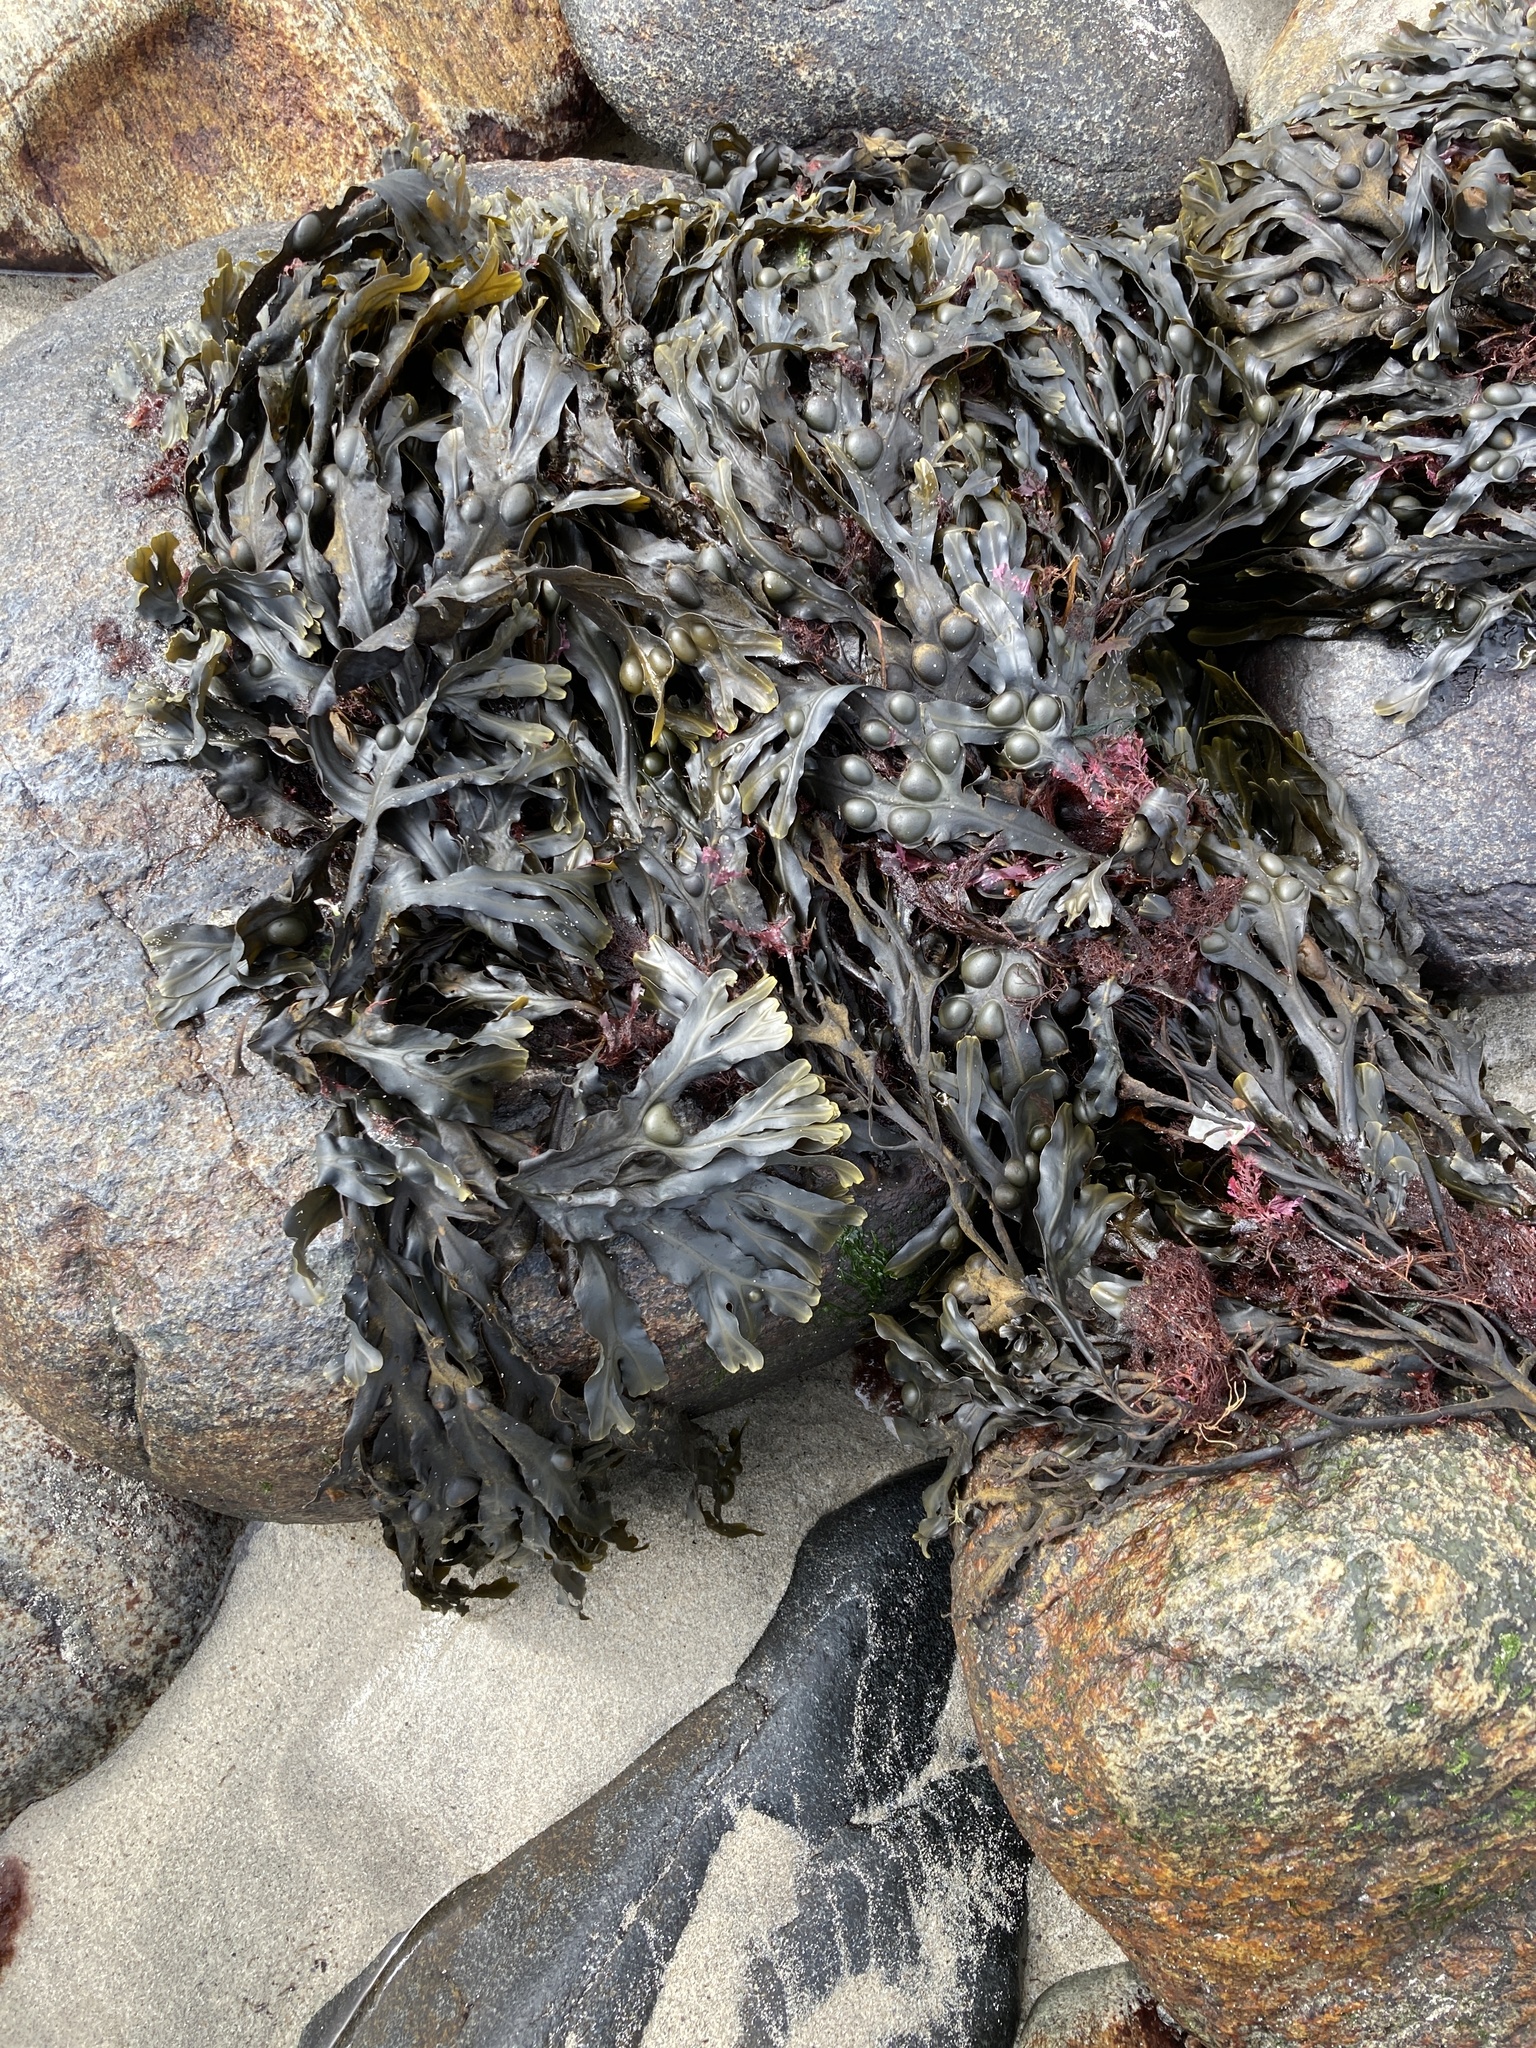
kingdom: Chromista
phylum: Ochrophyta
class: Phaeophyceae
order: Fucales
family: Fucaceae
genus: Fucus
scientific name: Fucus vesiculosus
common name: Bladder wrack
